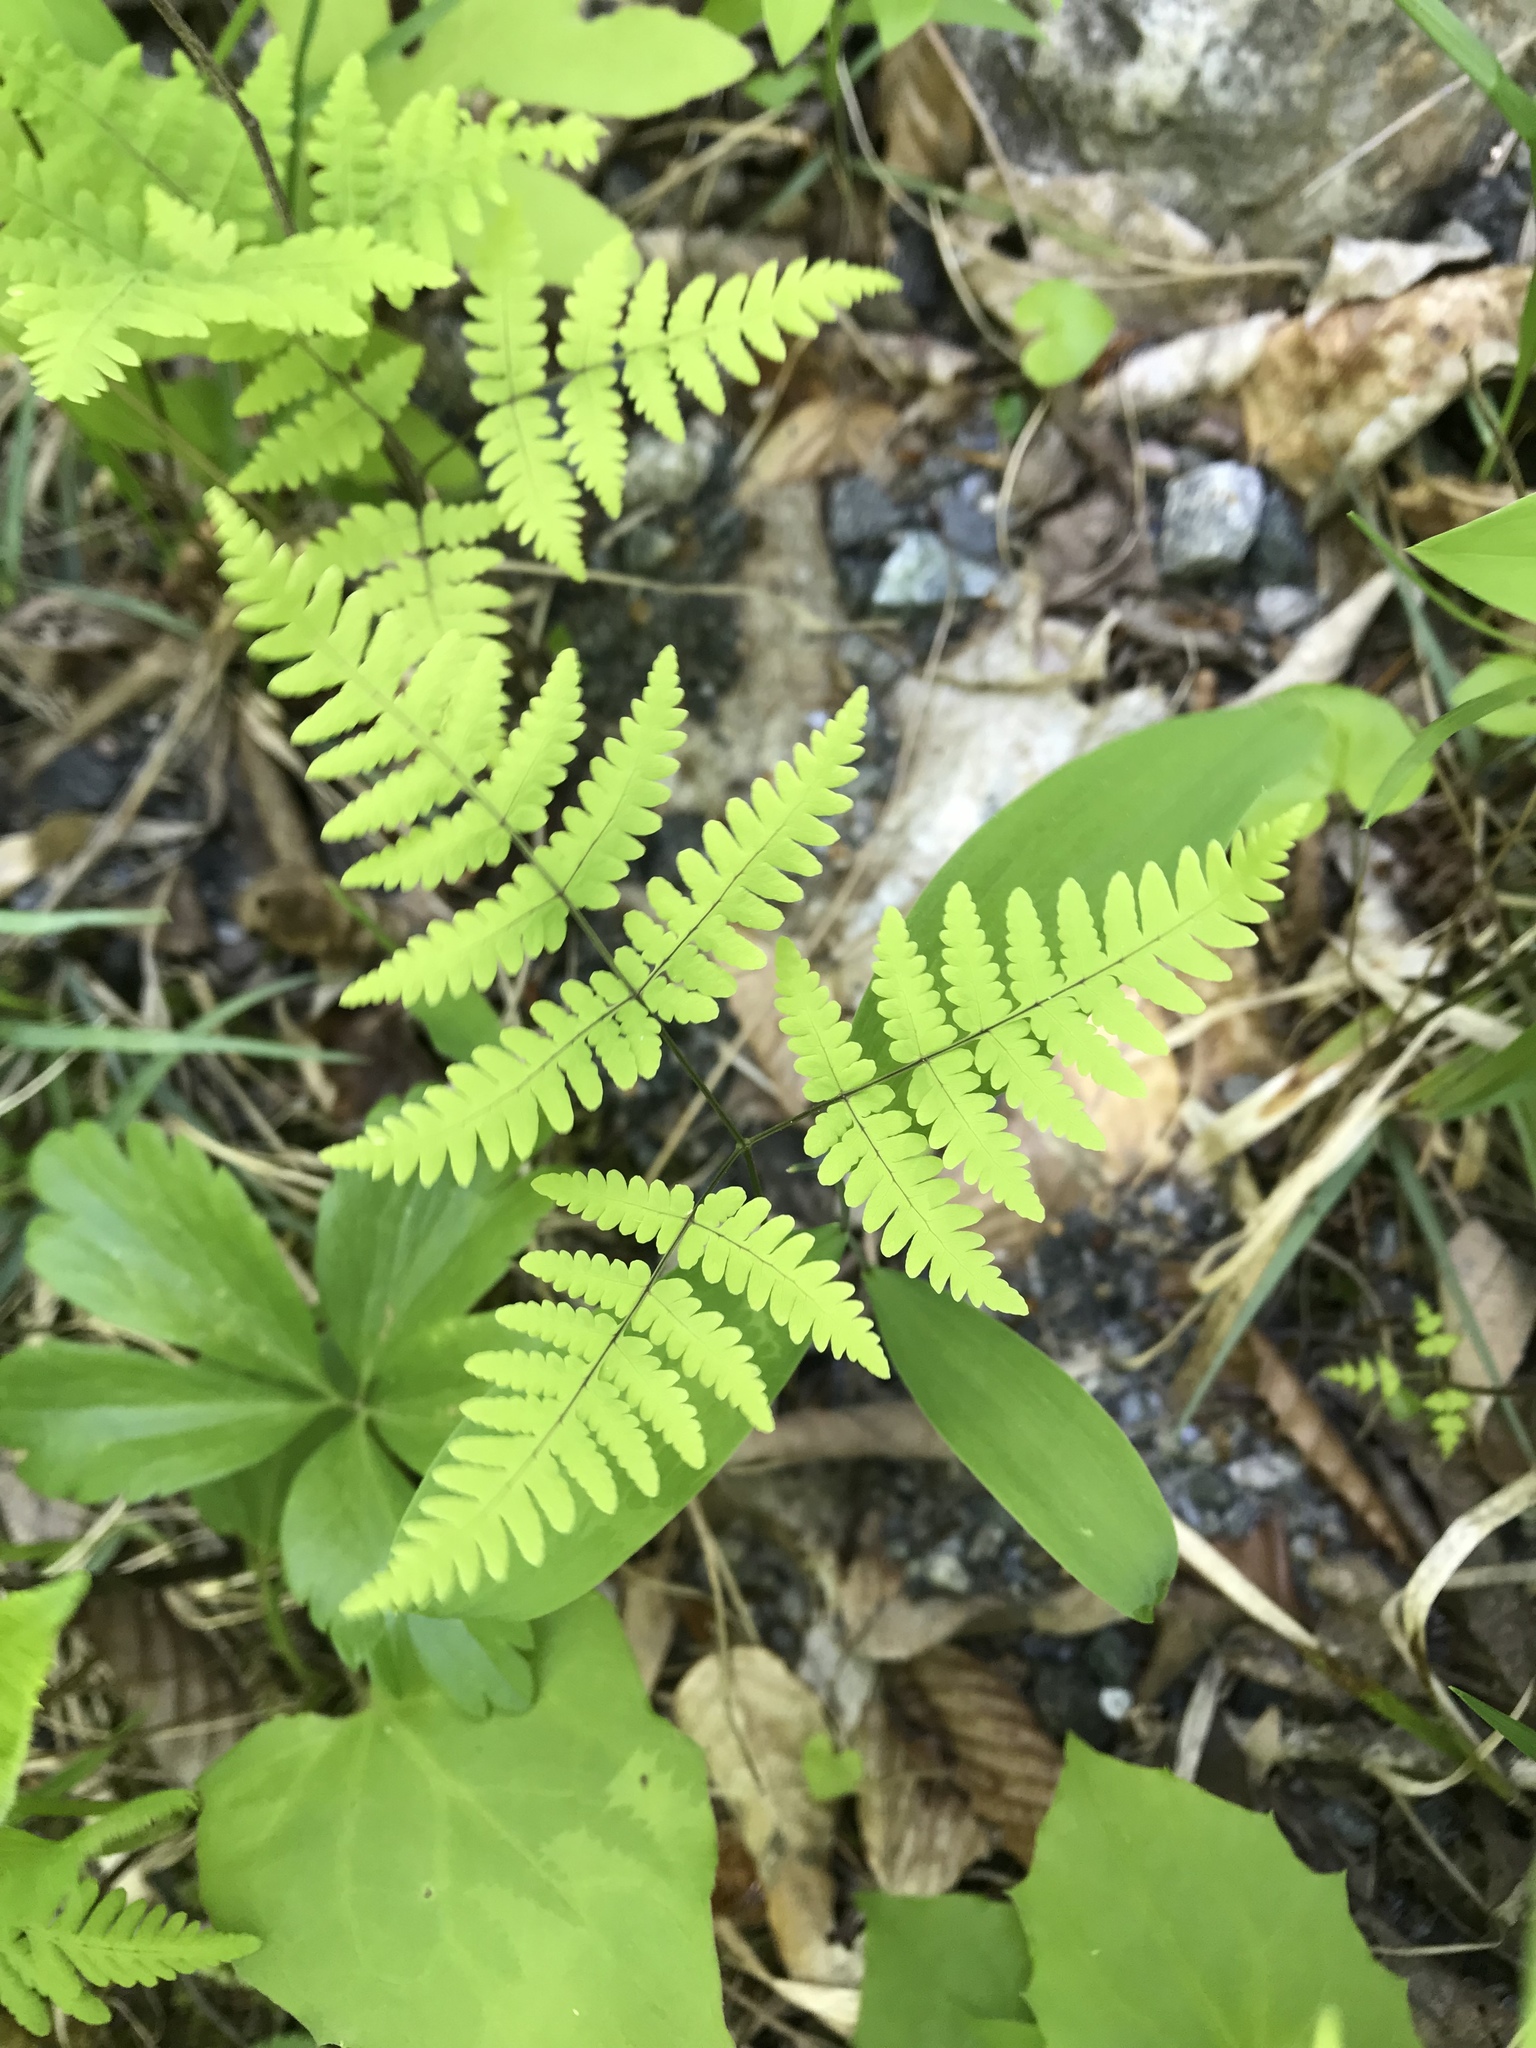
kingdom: Plantae
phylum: Tracheophyta
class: Polypodiopsida
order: Polypodiales
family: Cystopteridaceae
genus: Gymnocarpium
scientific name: Gymnocarpium dryopteris
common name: Oak fern
